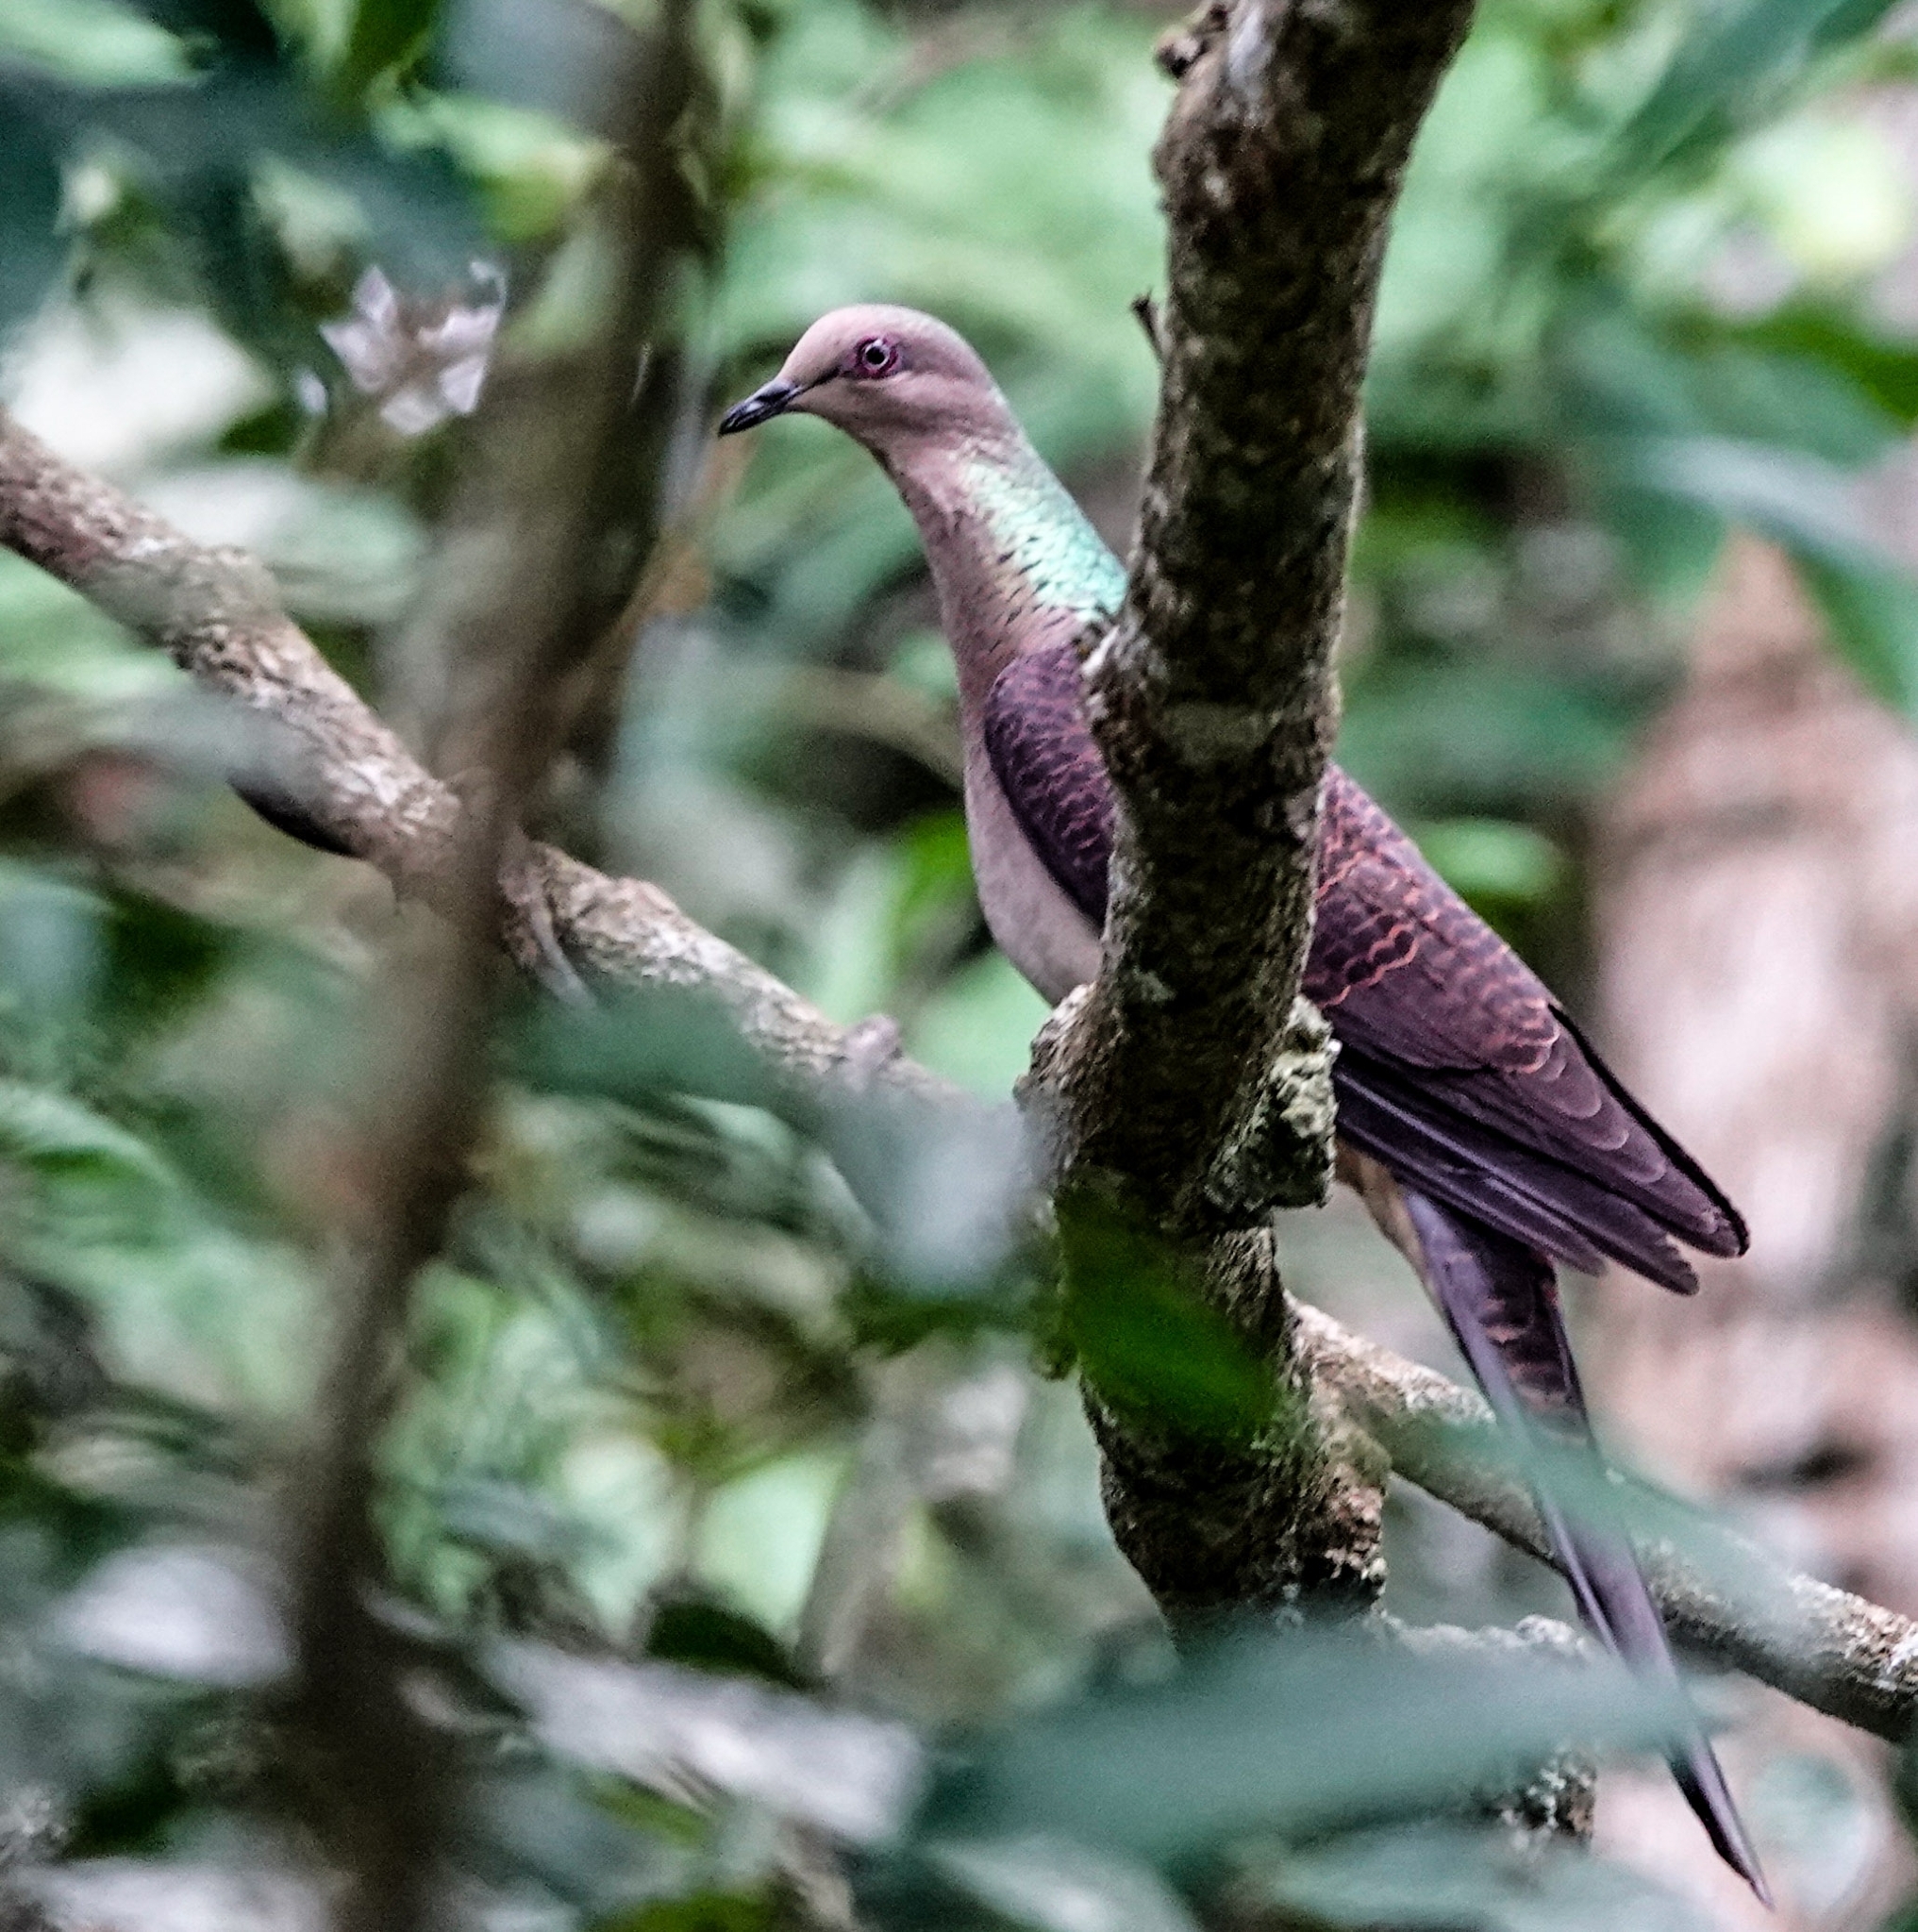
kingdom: Animalia
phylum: Chordata
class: Aves
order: Columbiformes
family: Columbidae
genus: Macropygia
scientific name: Macropygia unchall
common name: Barred cuckoo-dove
